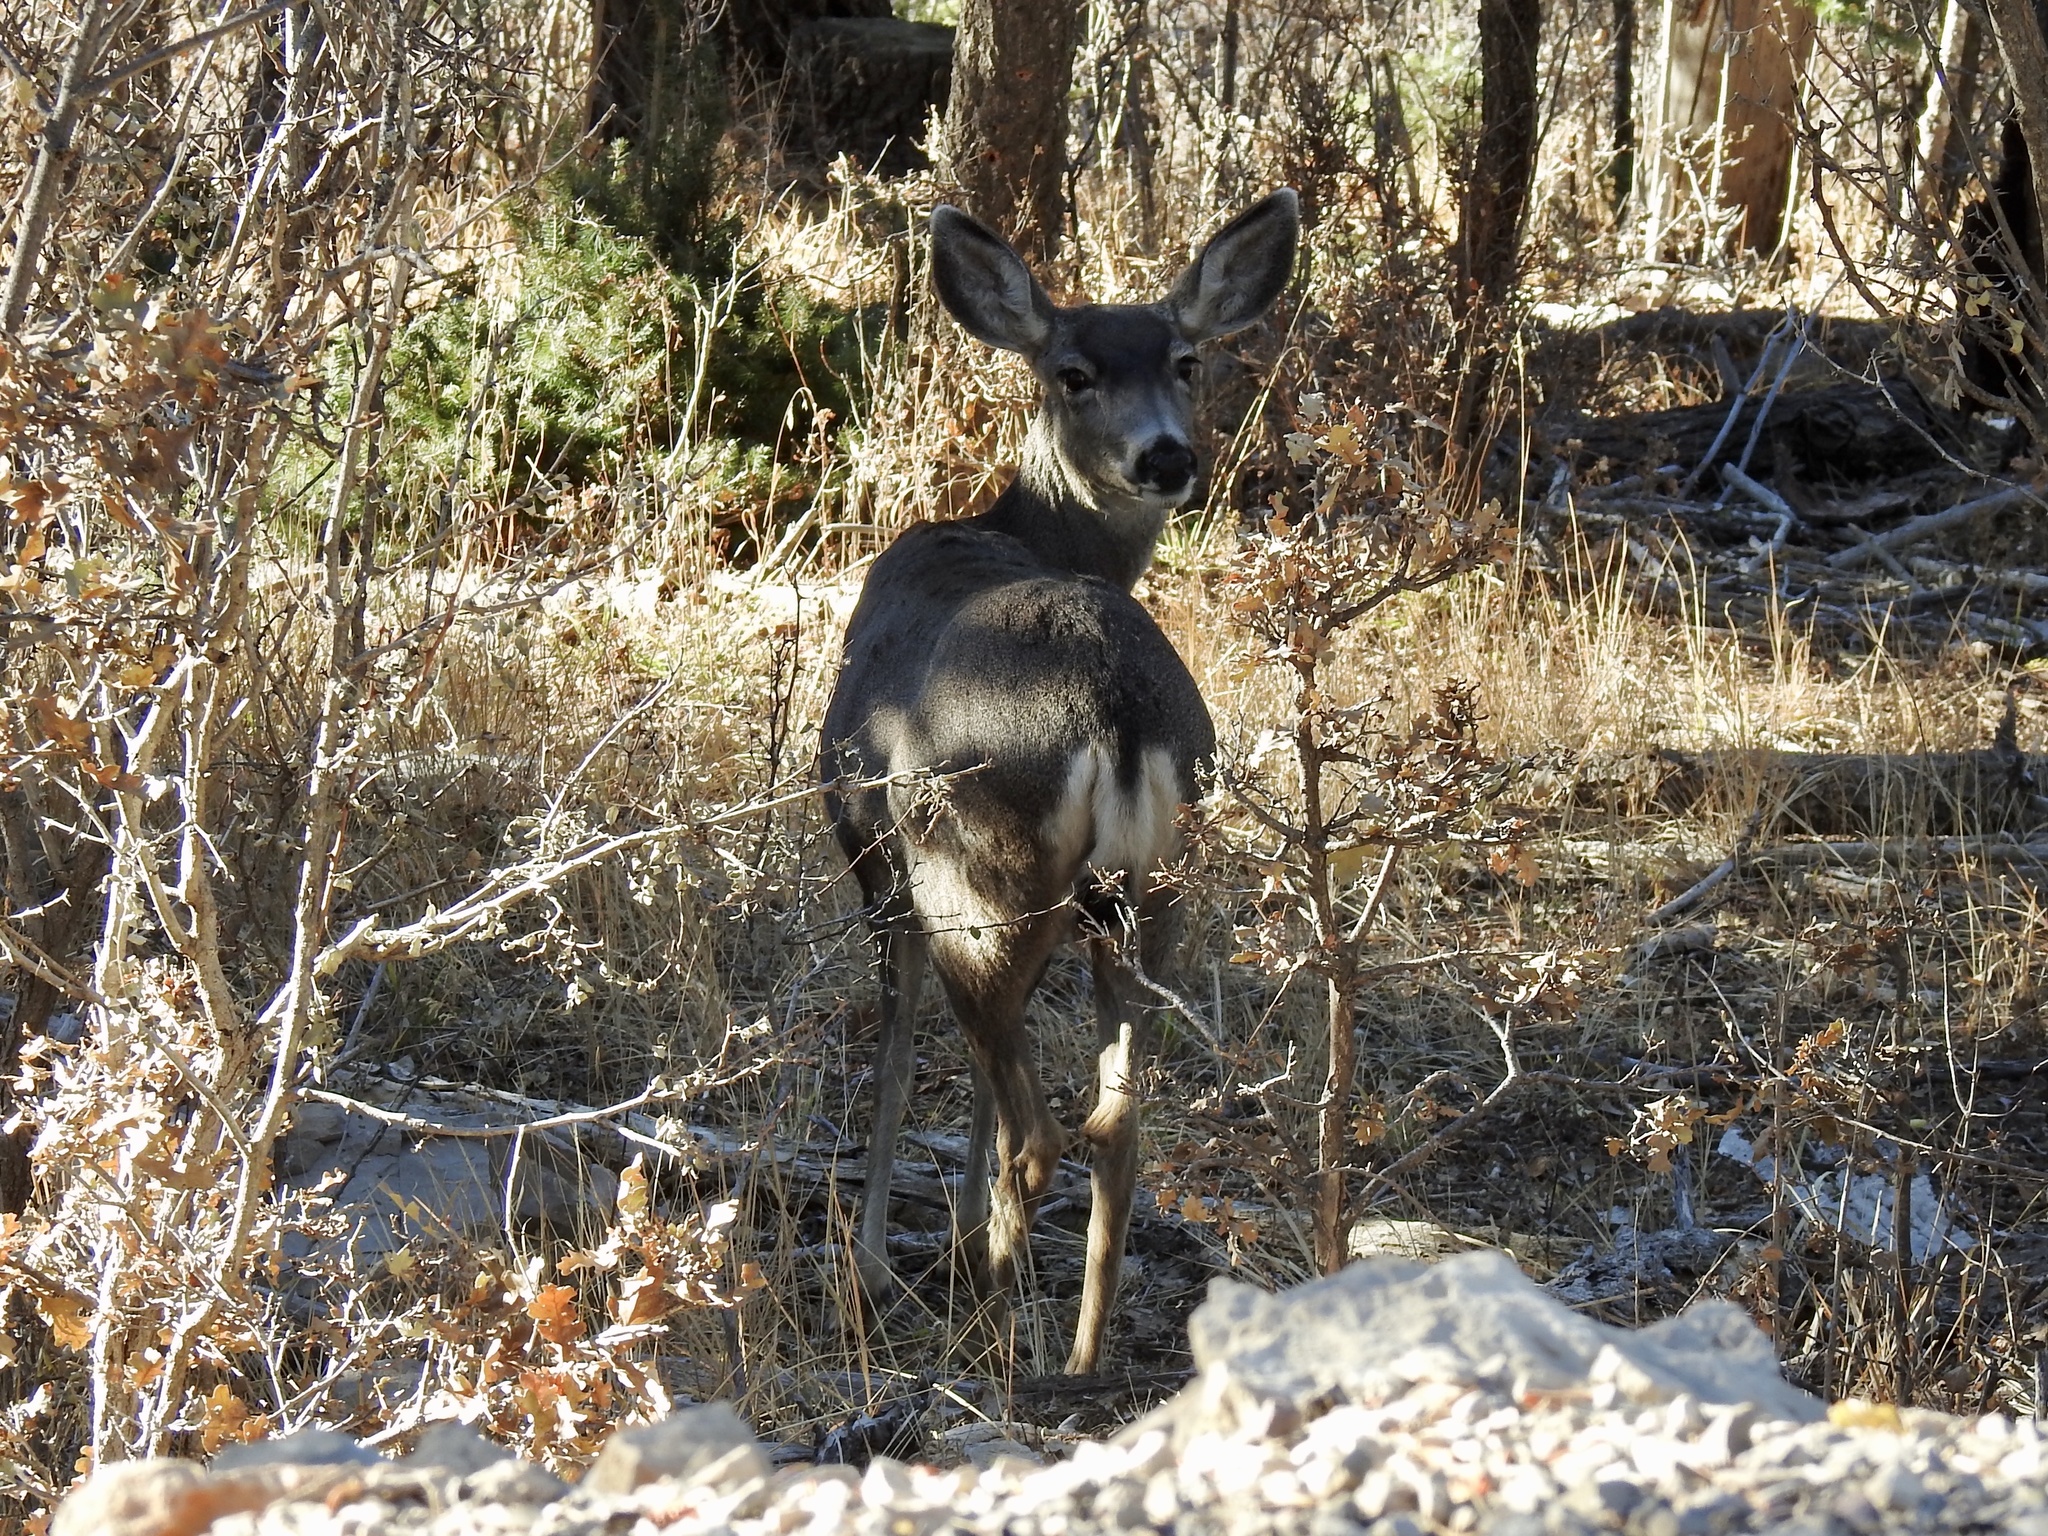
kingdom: Animalia
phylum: Chordata
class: Mammalia
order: Artiodactyla
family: Cervidae
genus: Odocoileus
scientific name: Odocoileus hemionus
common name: Mule deer
